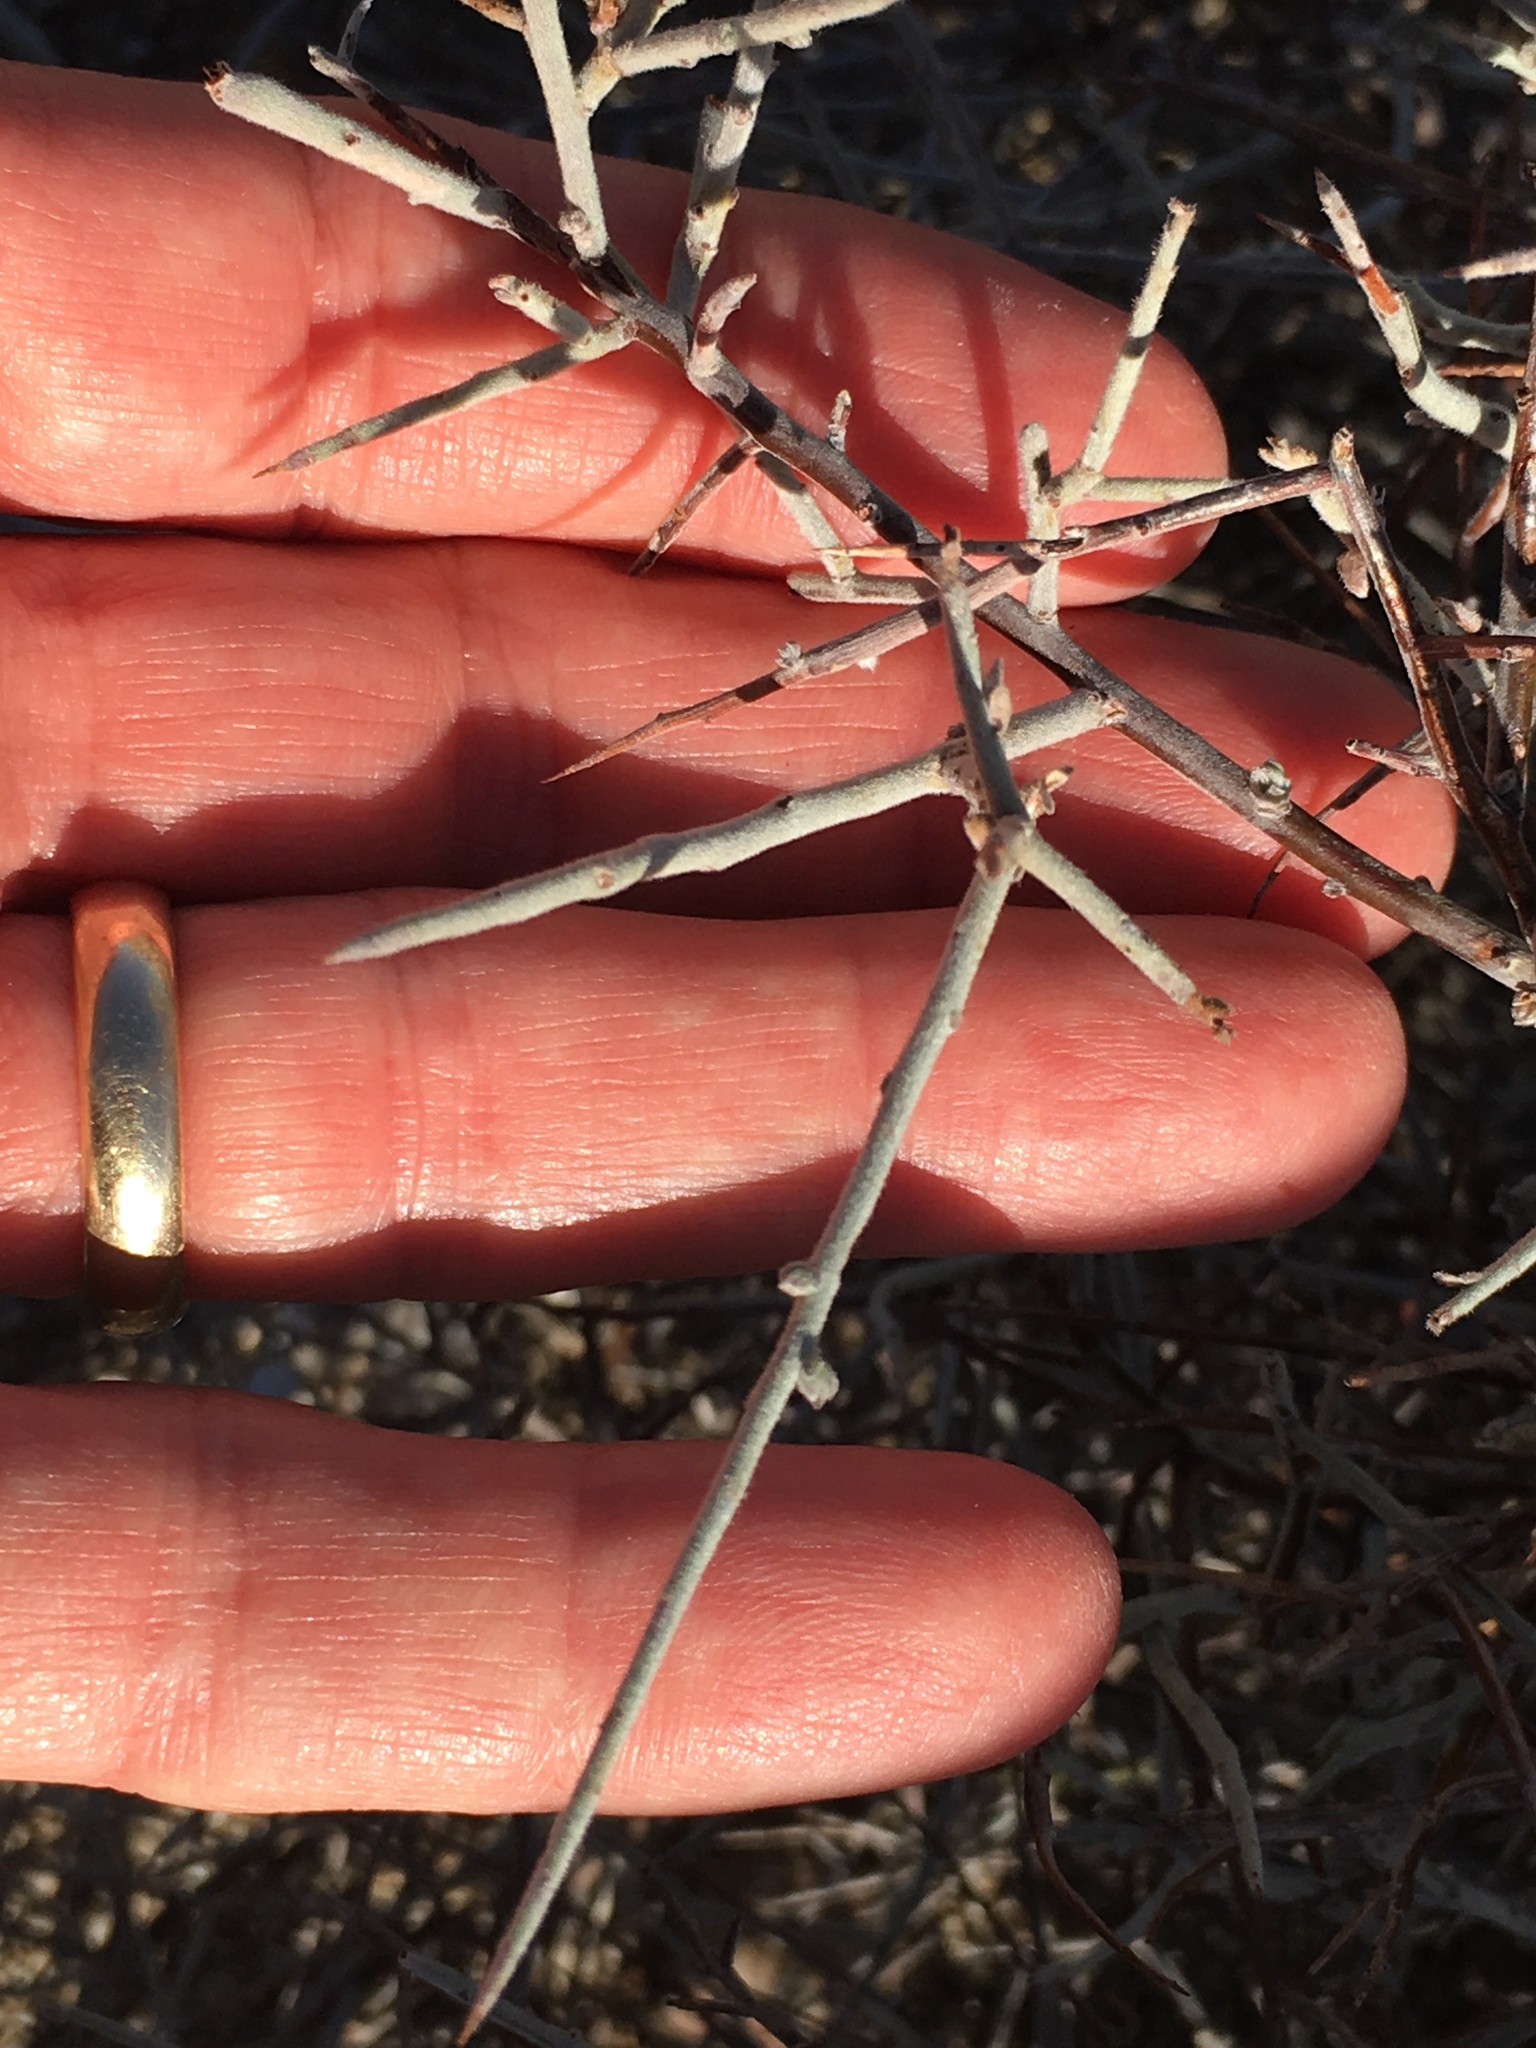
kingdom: Plantae
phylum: Tracheophyta
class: Magnoliopsida
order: Zygophyllales
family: Krameriaceae
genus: Krameria
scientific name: Krameria bicolor
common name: White ratany
